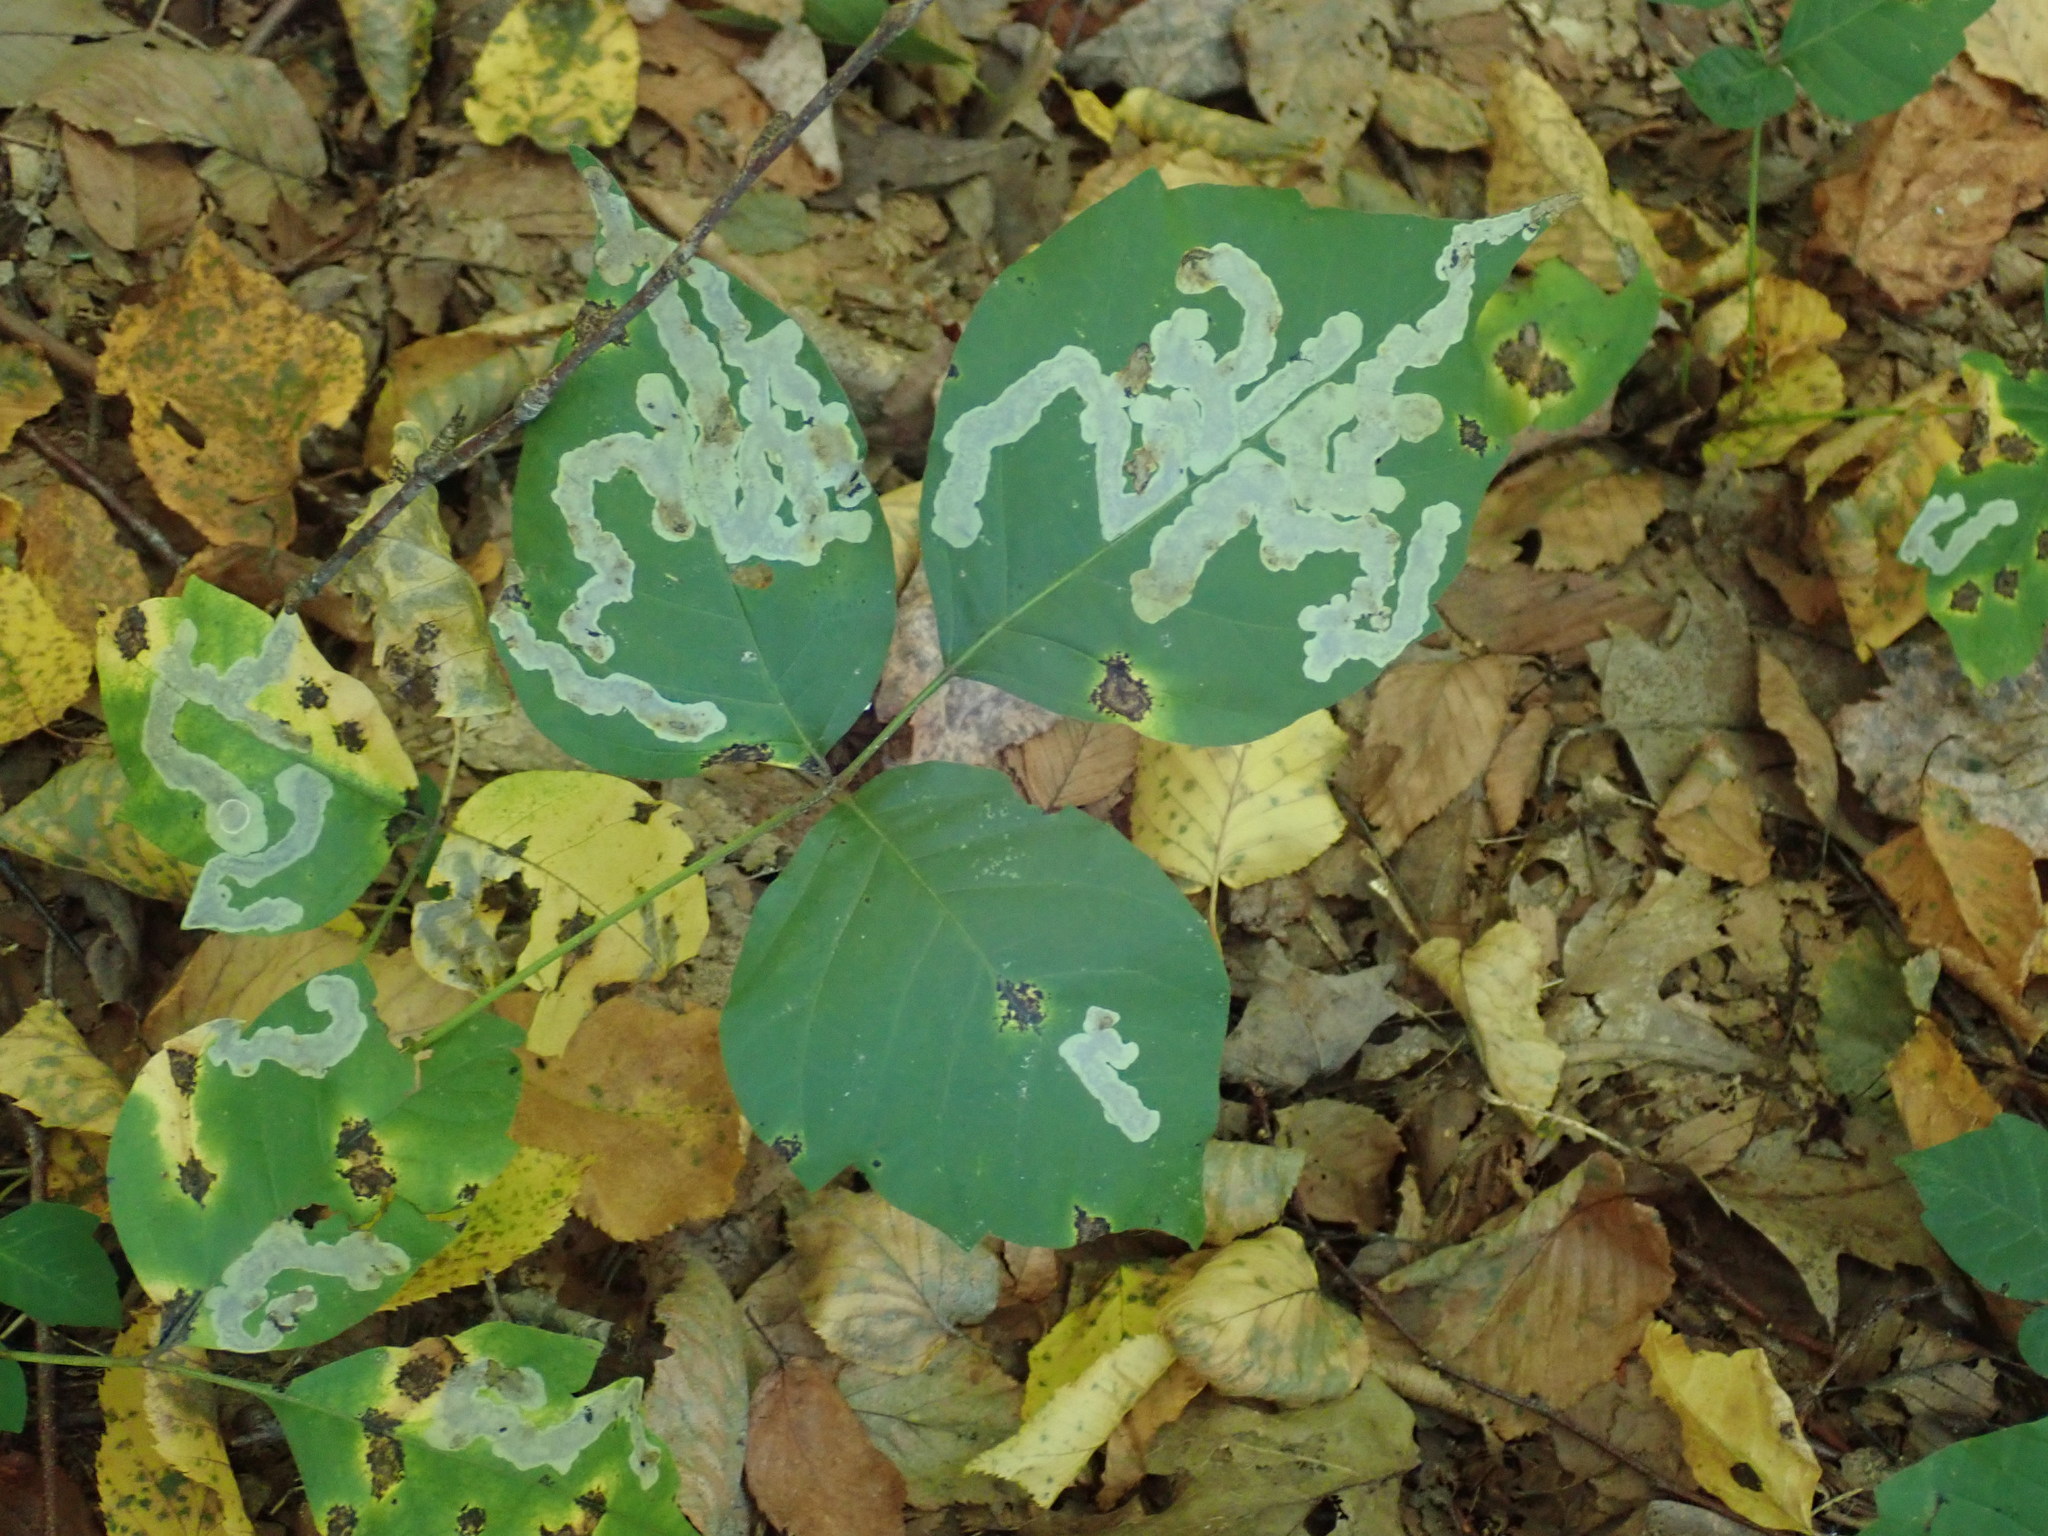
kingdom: Animalia
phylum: Arthropoda
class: Insecta
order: Lepidoptera
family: Gracillariidae
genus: Cameraria
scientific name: Cameraria guttifinitella
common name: Poison ivy leaf-miner moth
